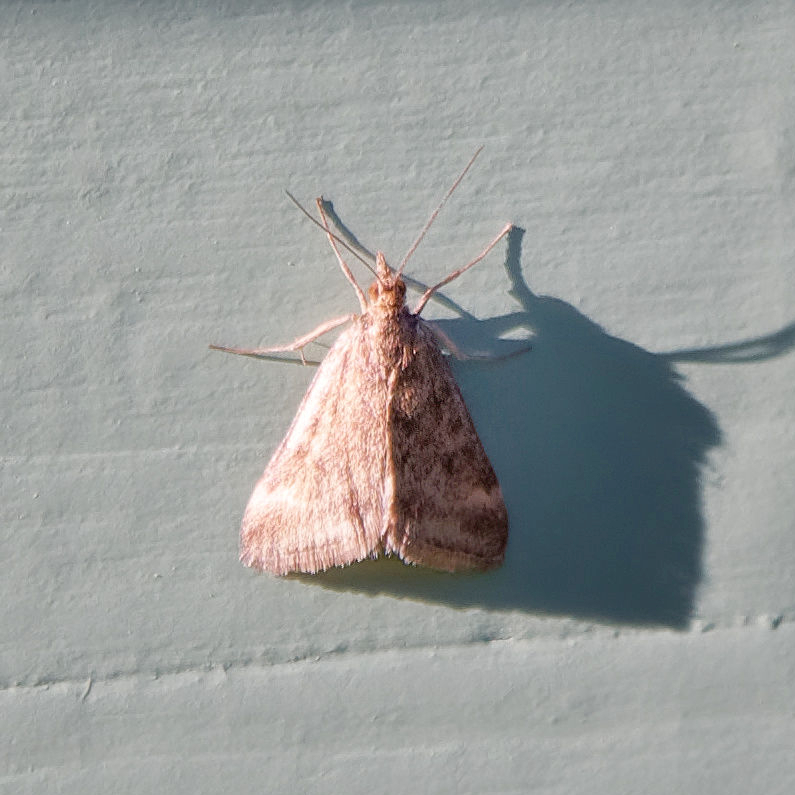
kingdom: Animalia
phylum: Arthropoda
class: Insecta
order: Lepidoptera
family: Crambidae
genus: Pyrausta
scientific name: Pyrausta despicata
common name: Straw-barred pearl
